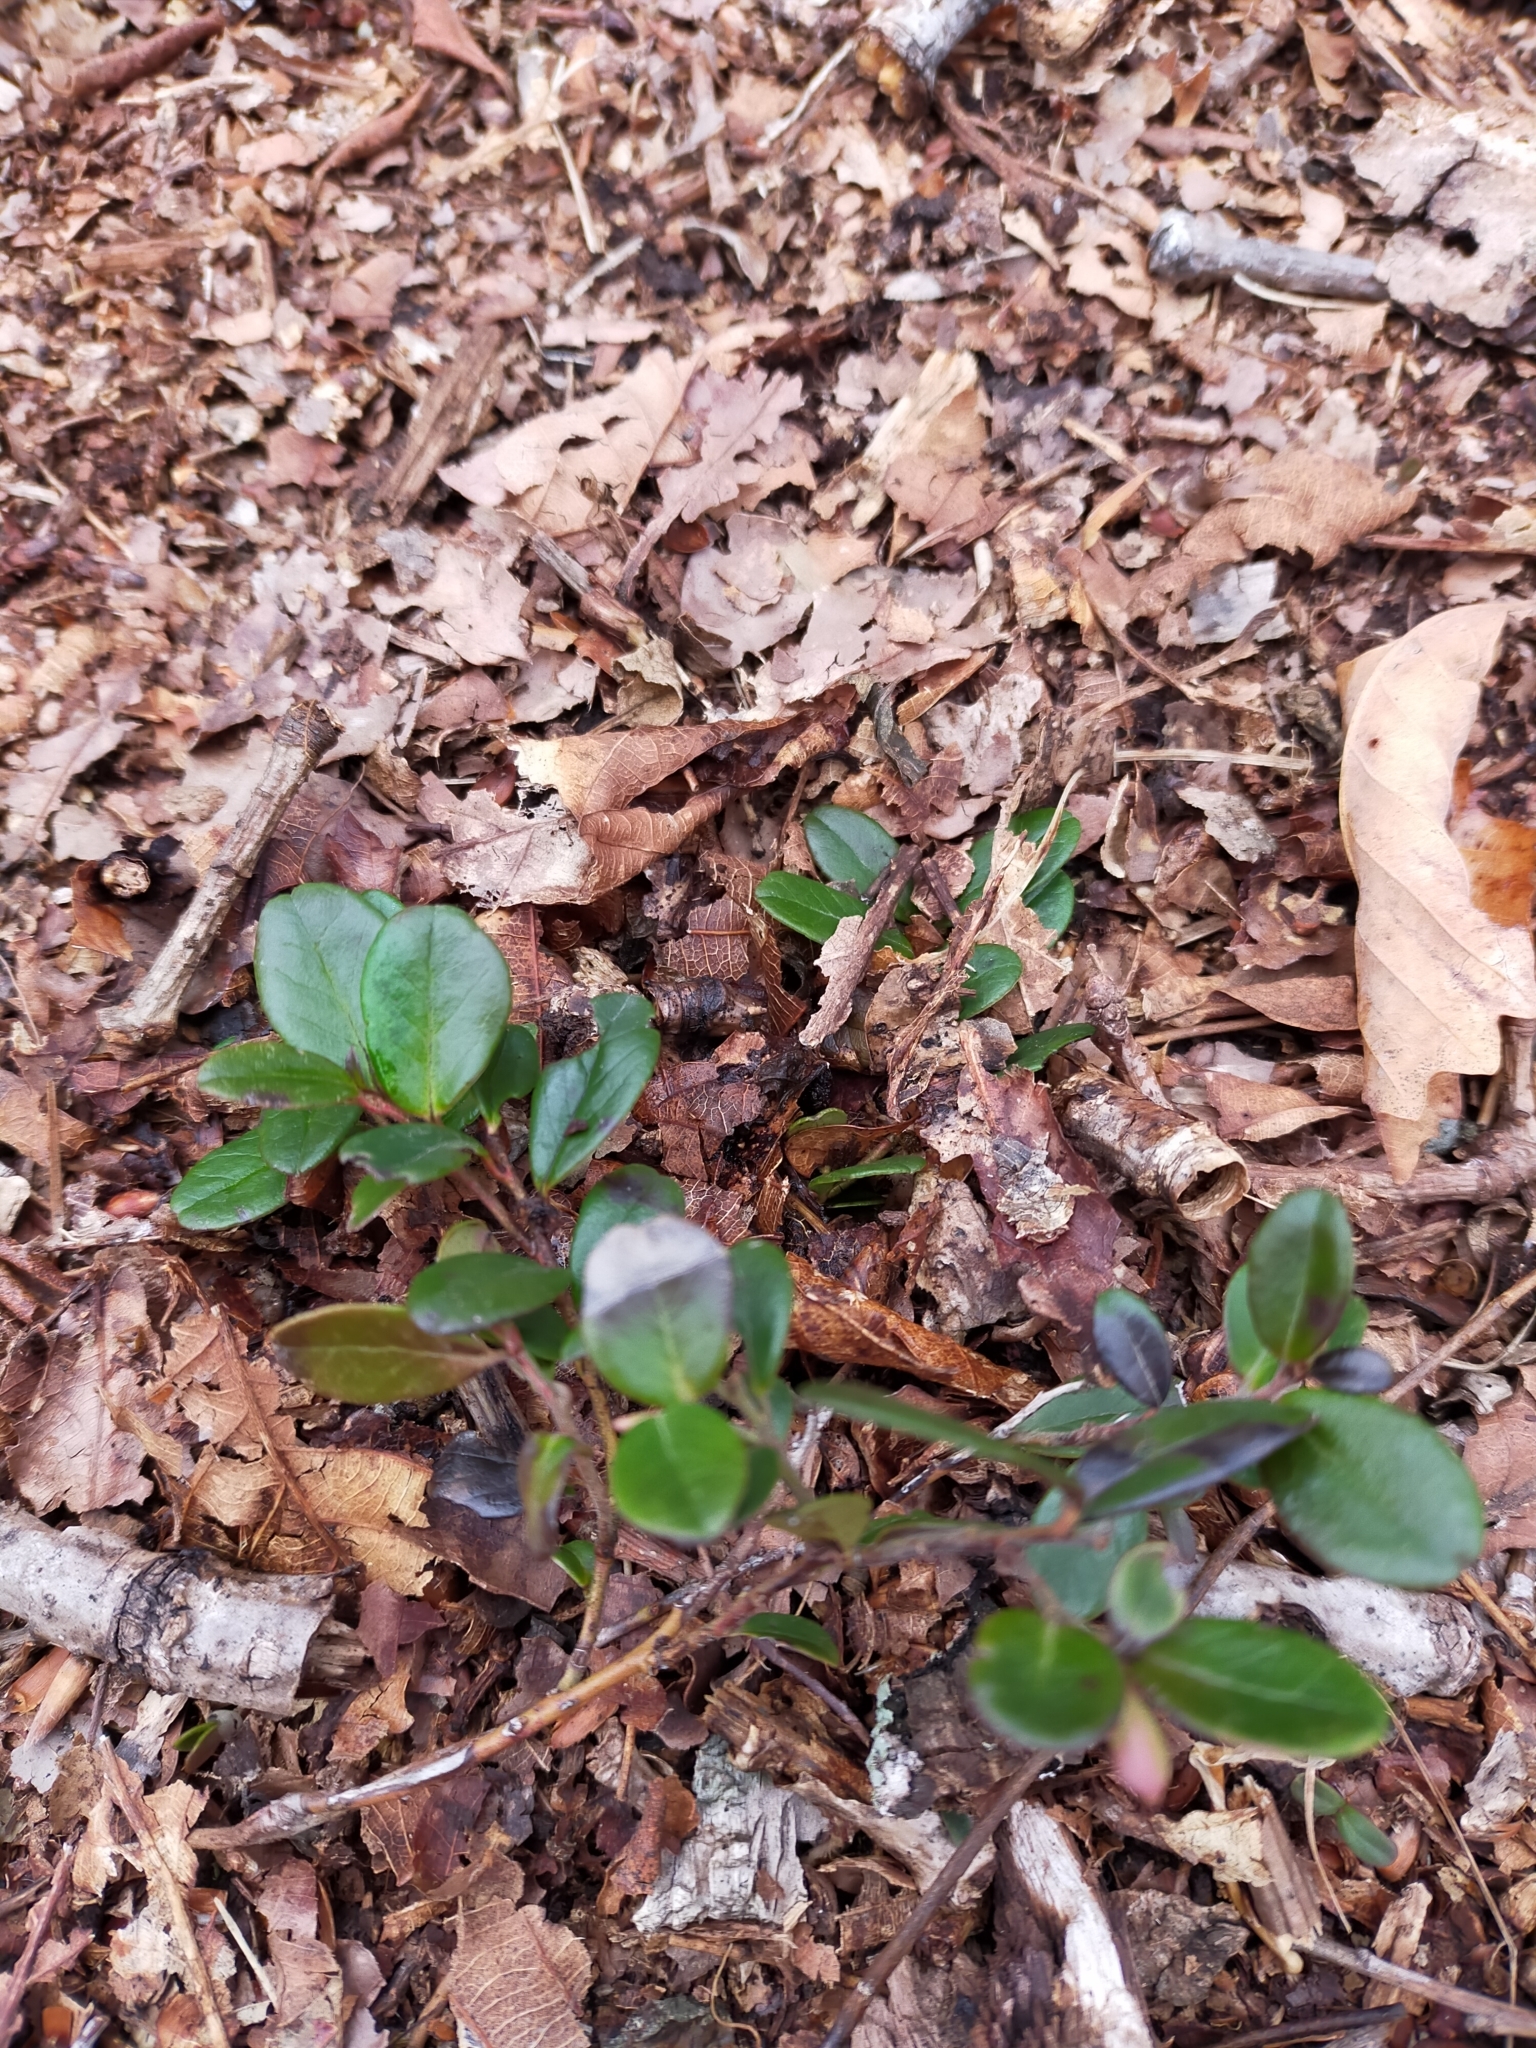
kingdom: Plantae
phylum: Tracheophyta
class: Magnoliopsida
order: Ericales
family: Ericaceae
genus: Vaccinium
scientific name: Vaccinium vitis-idaea
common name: Cowberry
